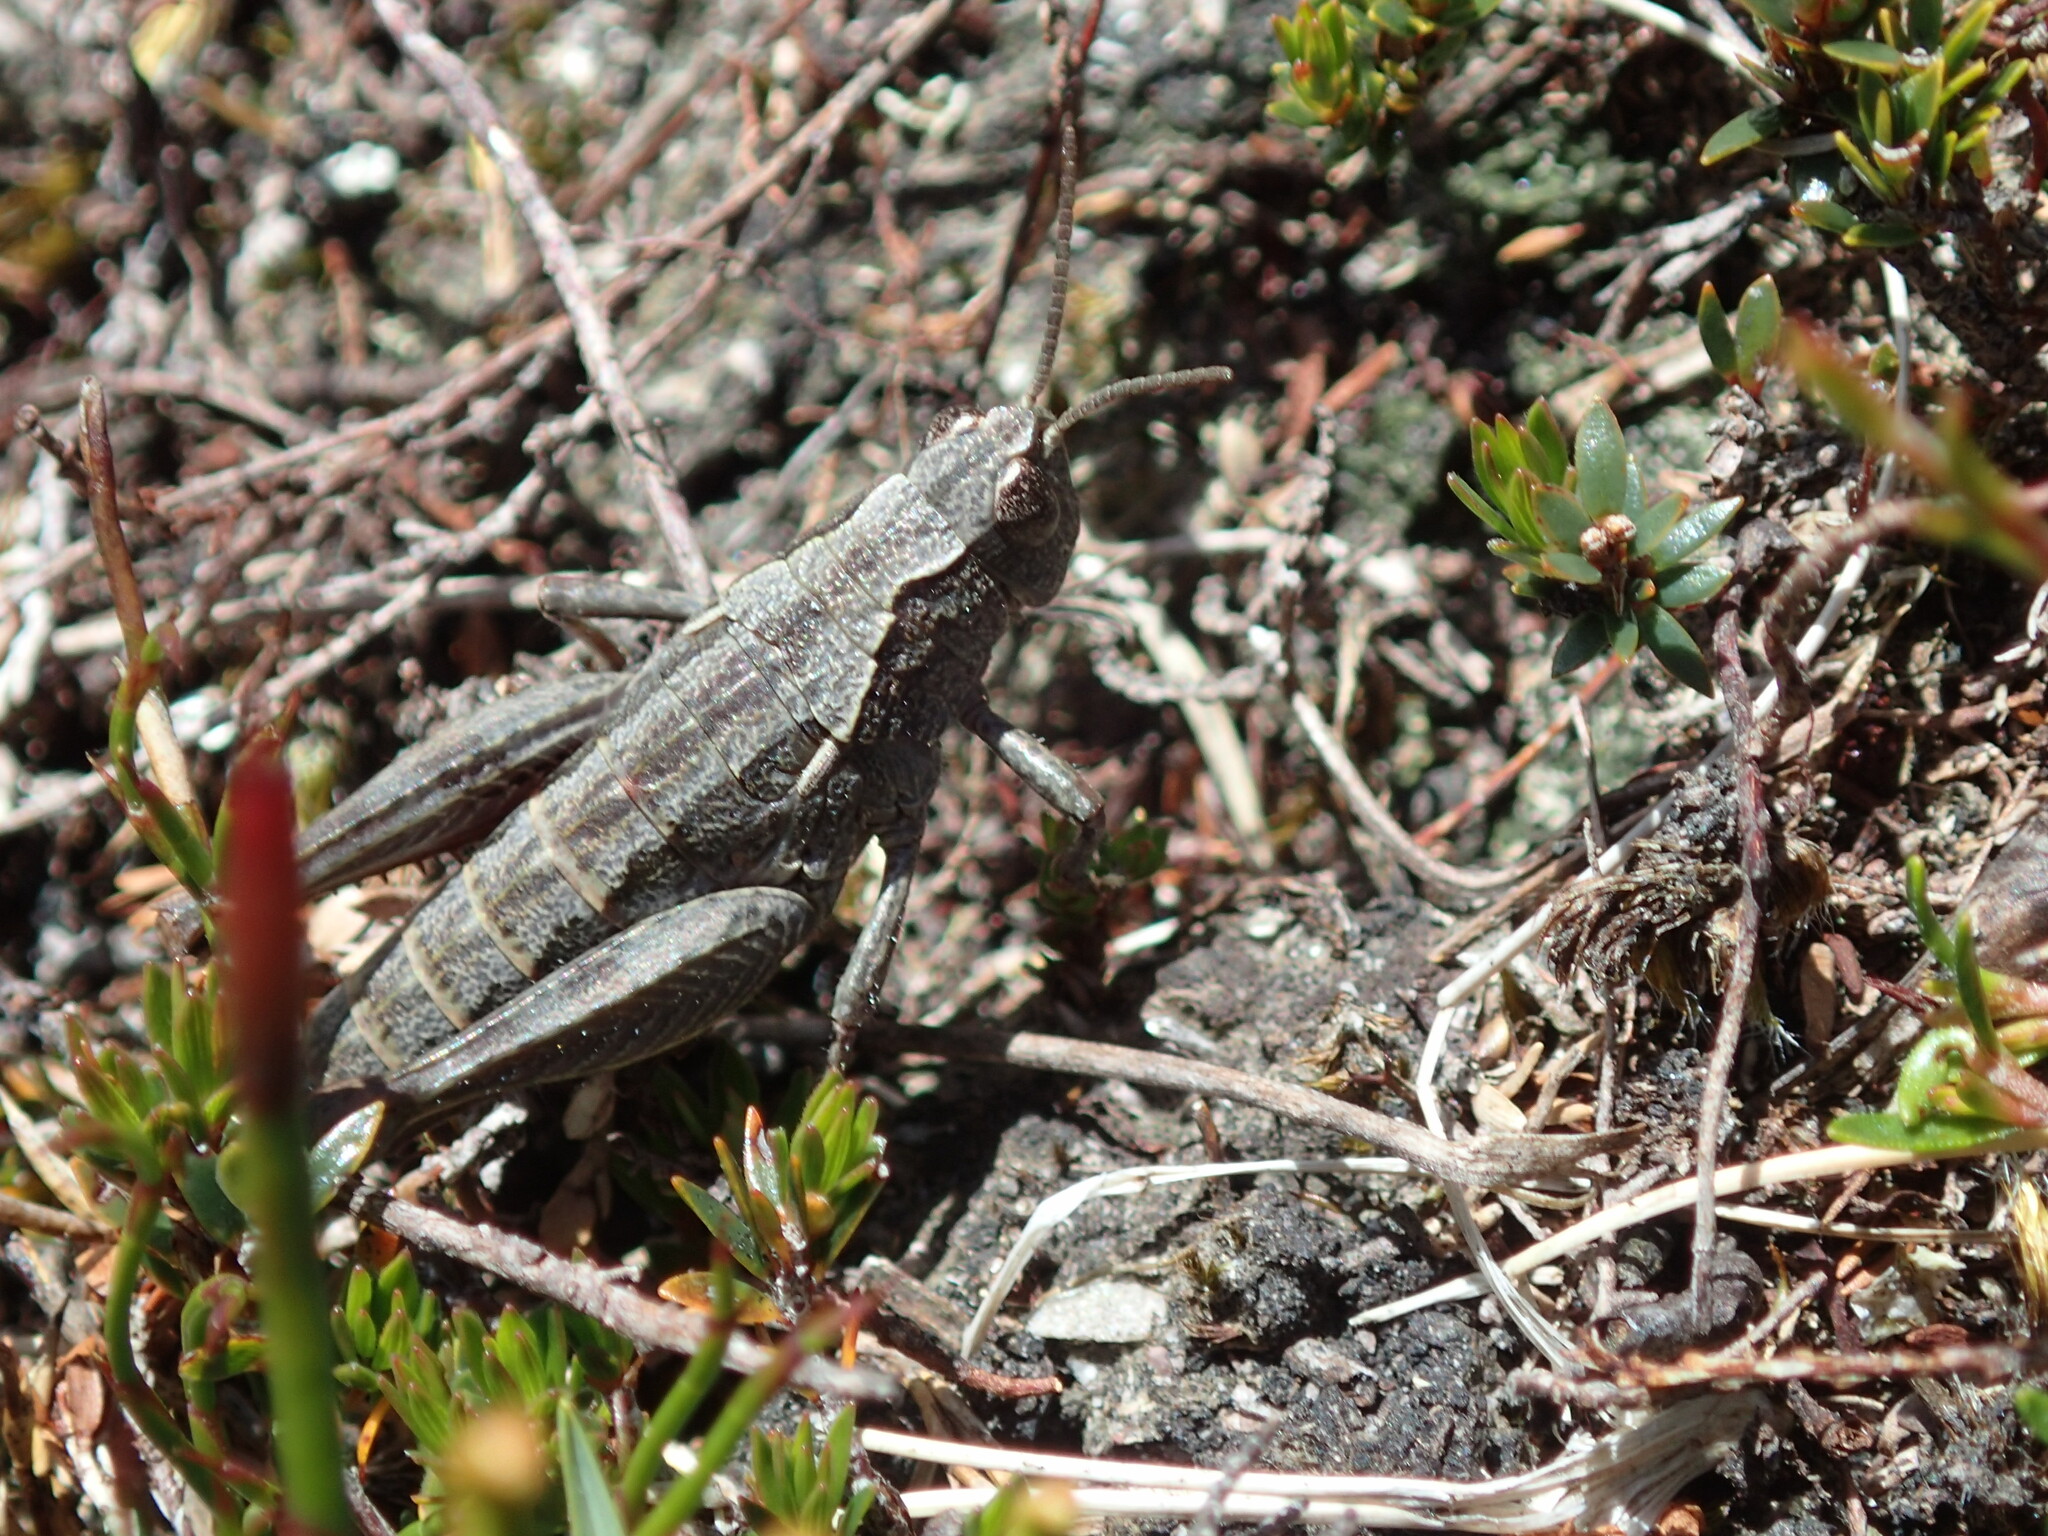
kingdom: Animalia
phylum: Arthropoda
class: Insecta
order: Orthoptera
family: Acrididae
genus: Tasmaniacris
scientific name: Tasmaniacris tasmaniensis
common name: Tasmanian grasshopper
